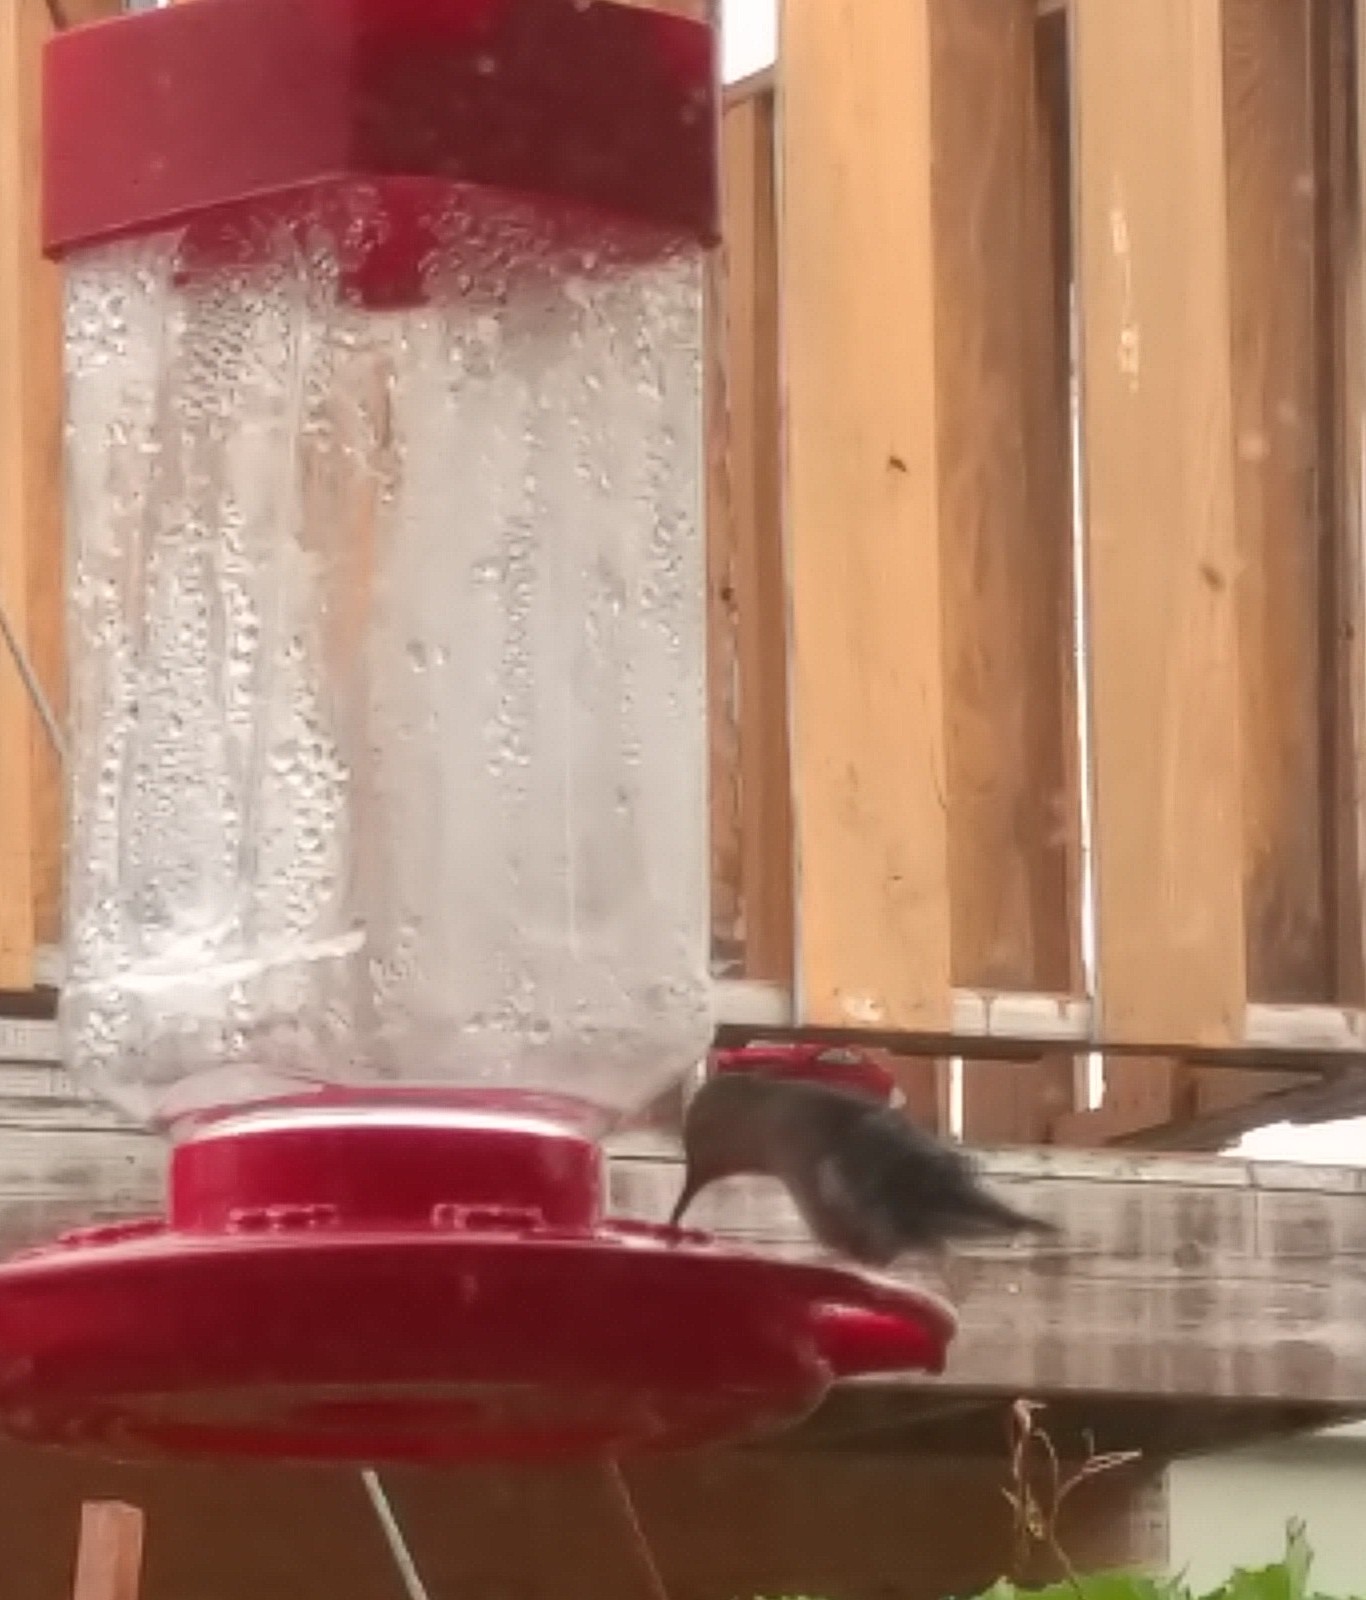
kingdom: Animalia
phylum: Chordata
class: Aves
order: Apodiformes
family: Trochilidae
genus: Archilochus
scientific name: Archilochus colubris
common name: Ruby-throated hummingbird
